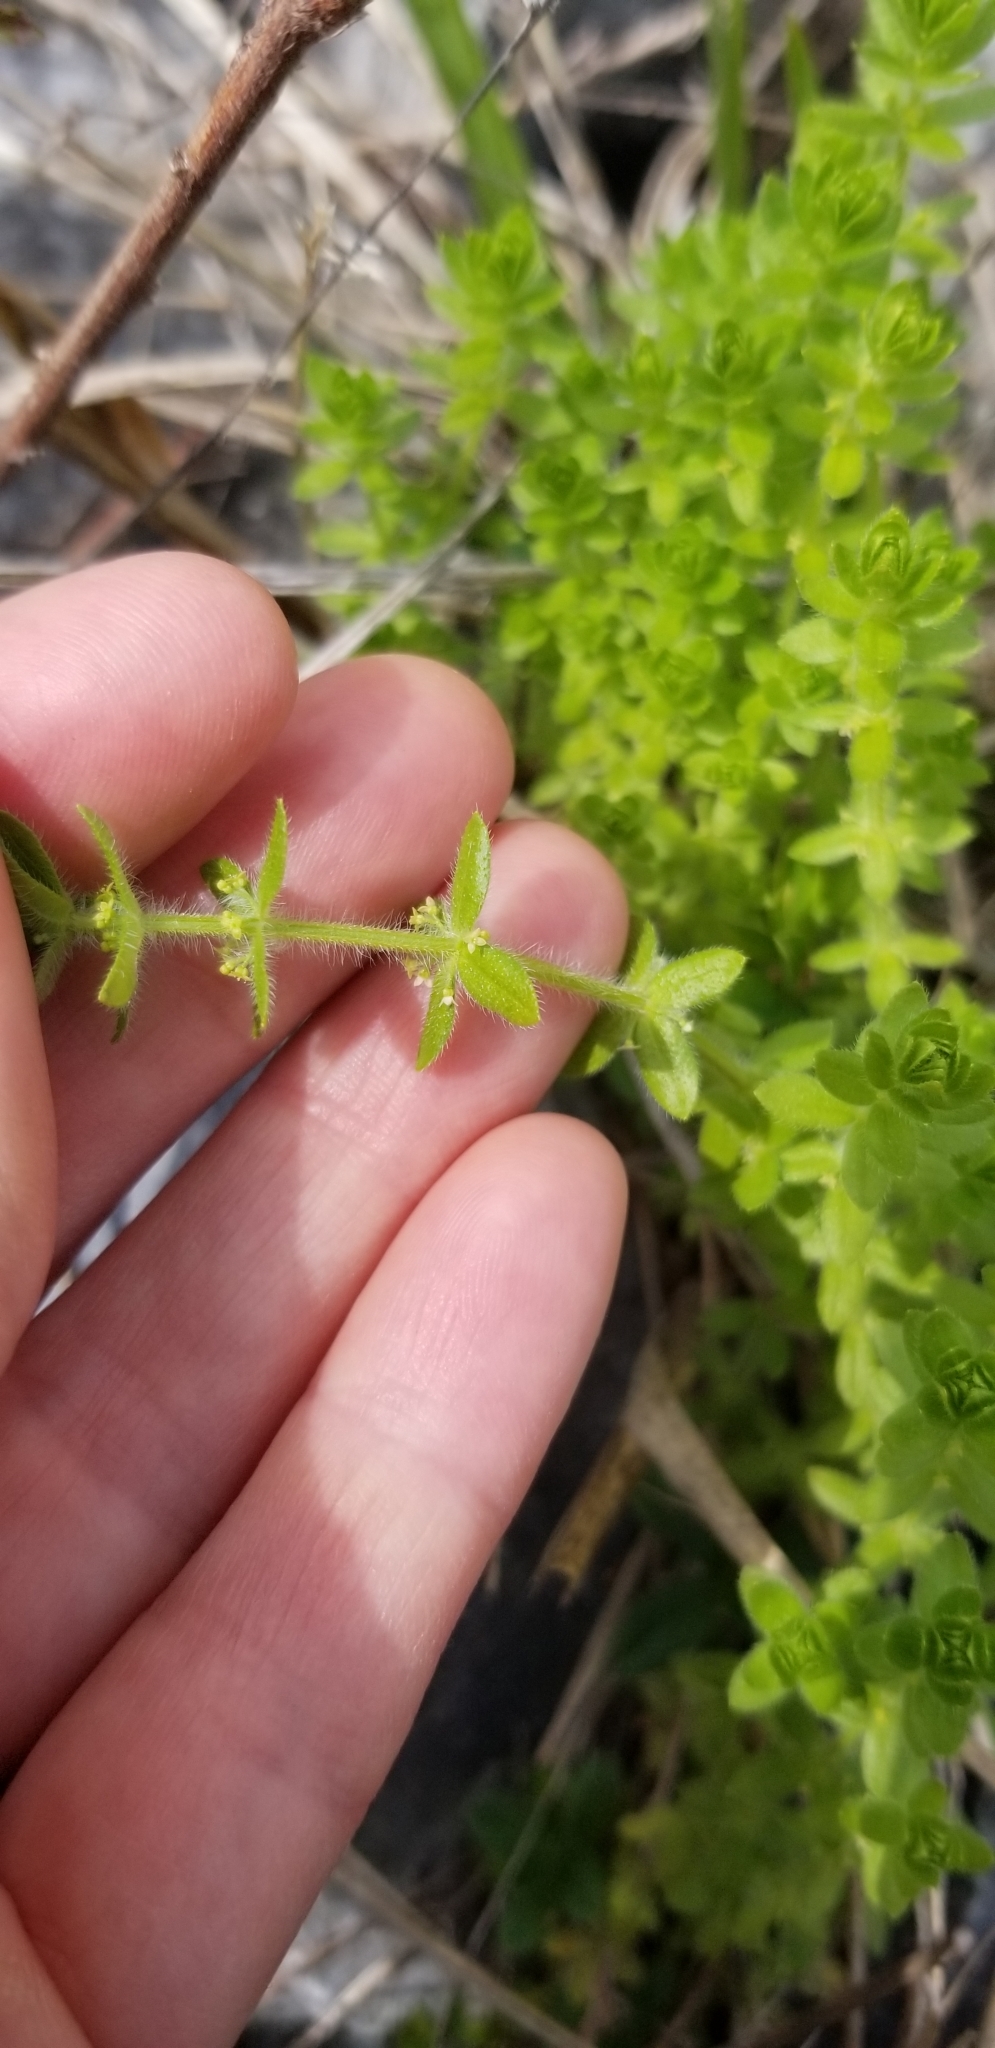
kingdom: Plantae
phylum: Tracheophyta
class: Magnoliopsida
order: Gentianales
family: Rubiaceae
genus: Cruciata
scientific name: Cruciata pedemontana
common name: Piedmont bedstraw
